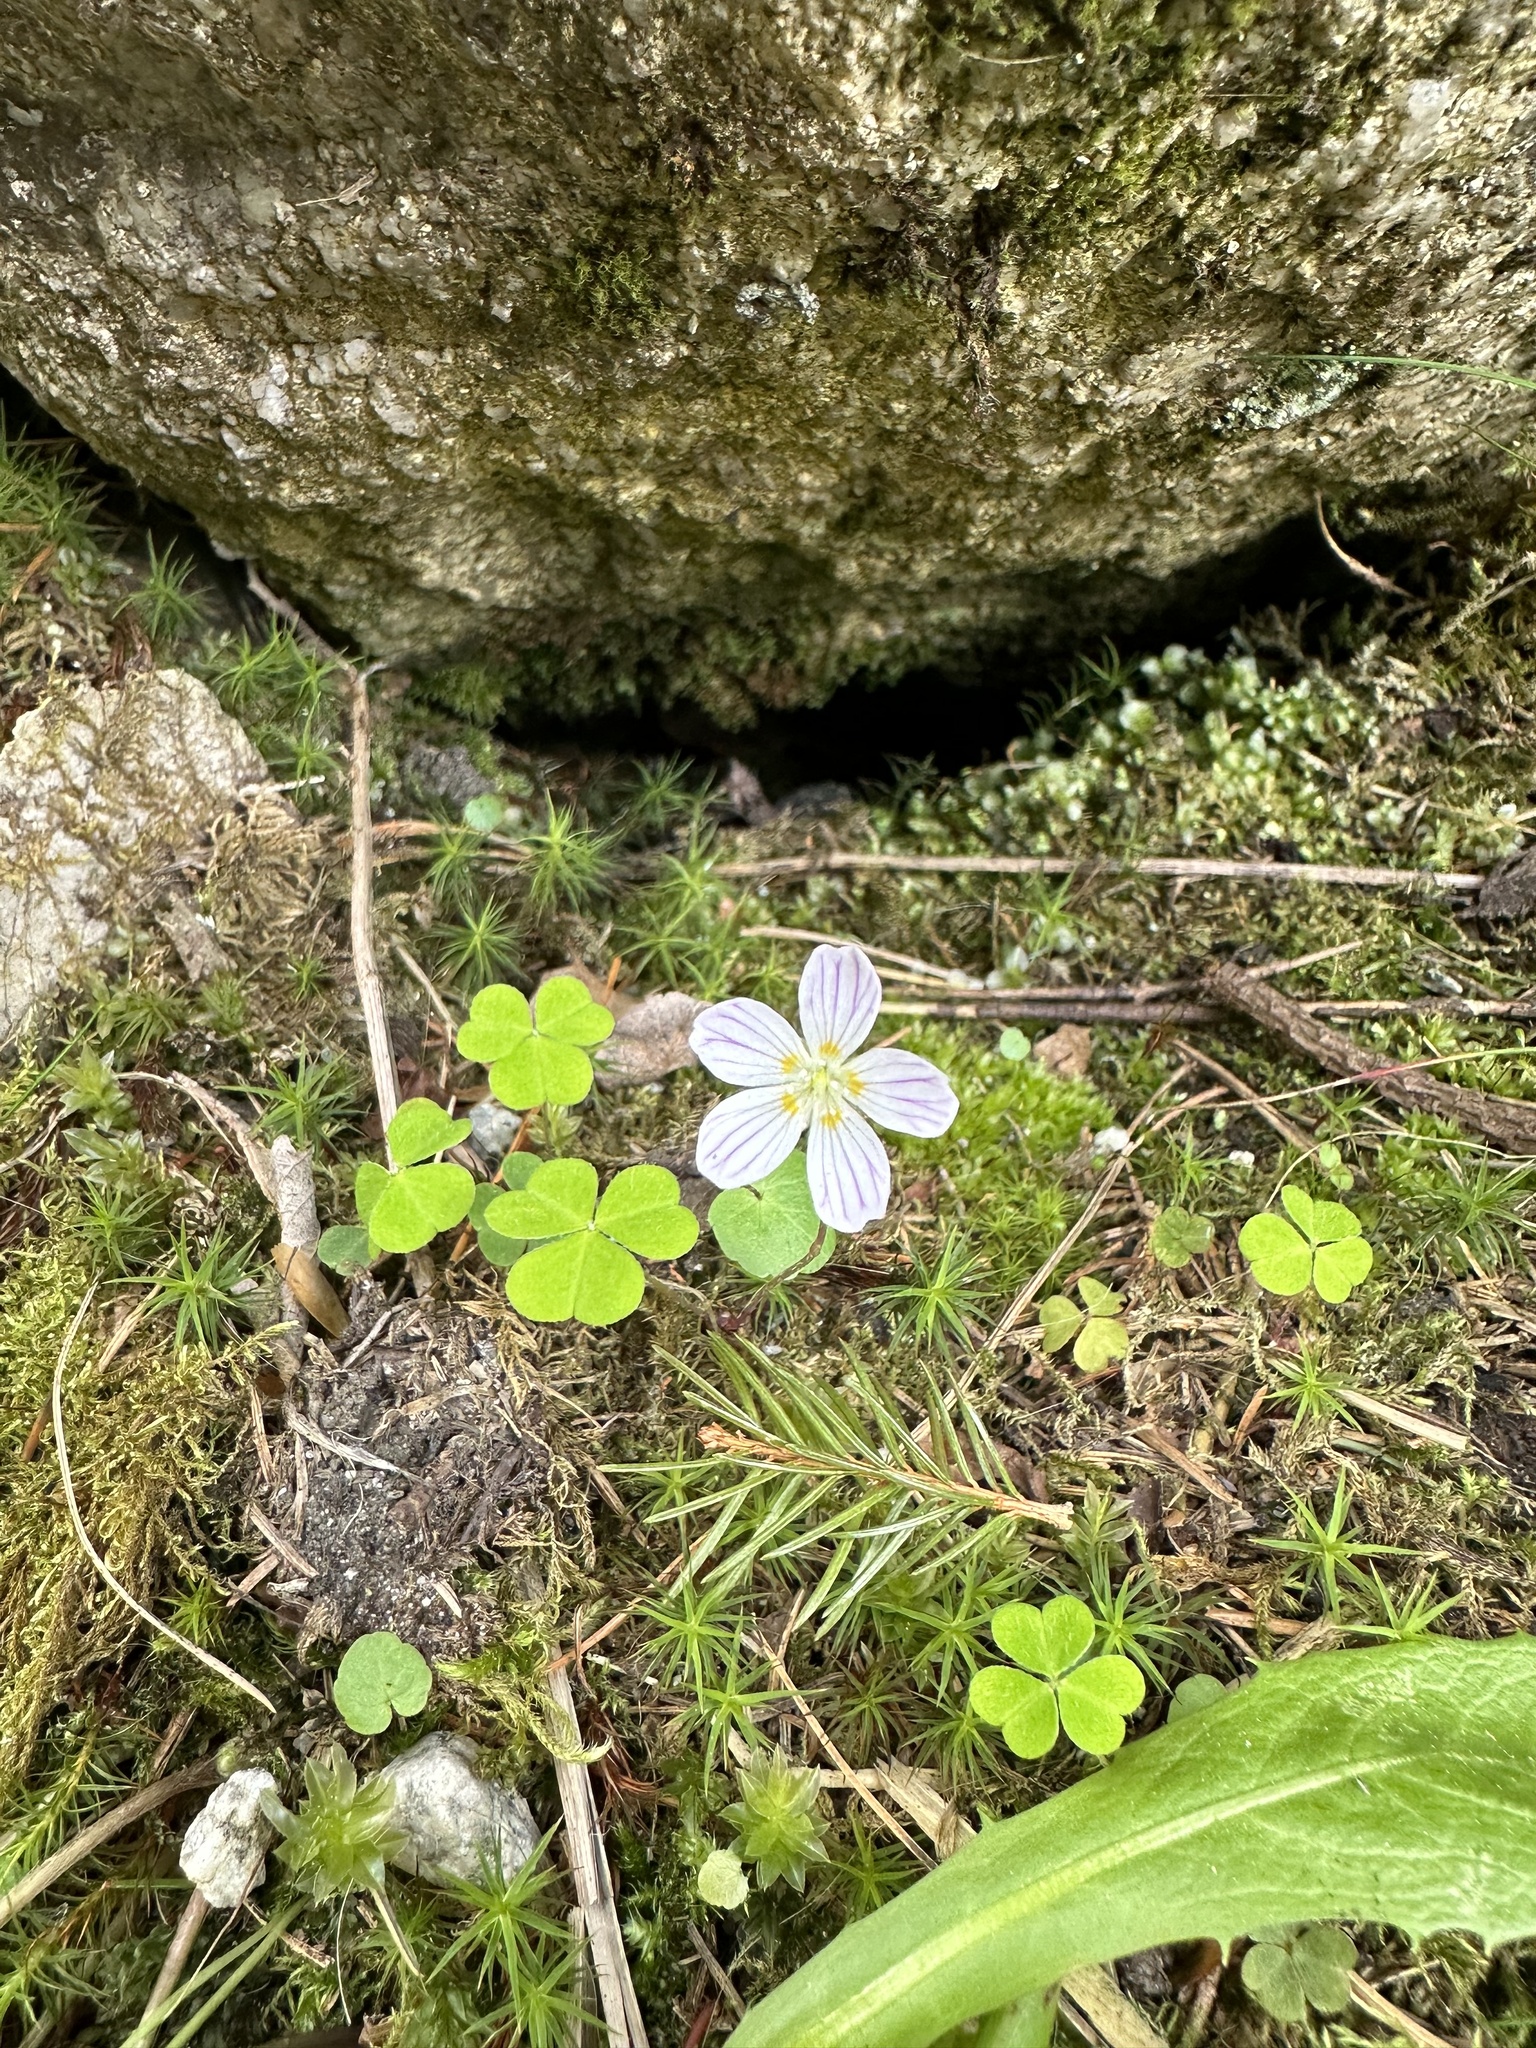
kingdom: Plantae
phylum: Tracheophyta
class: Magnoliopsida
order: Oxalidales
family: Oxalidaceae
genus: Oxalis
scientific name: Oxalis acetosella
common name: Wood-sorrel
